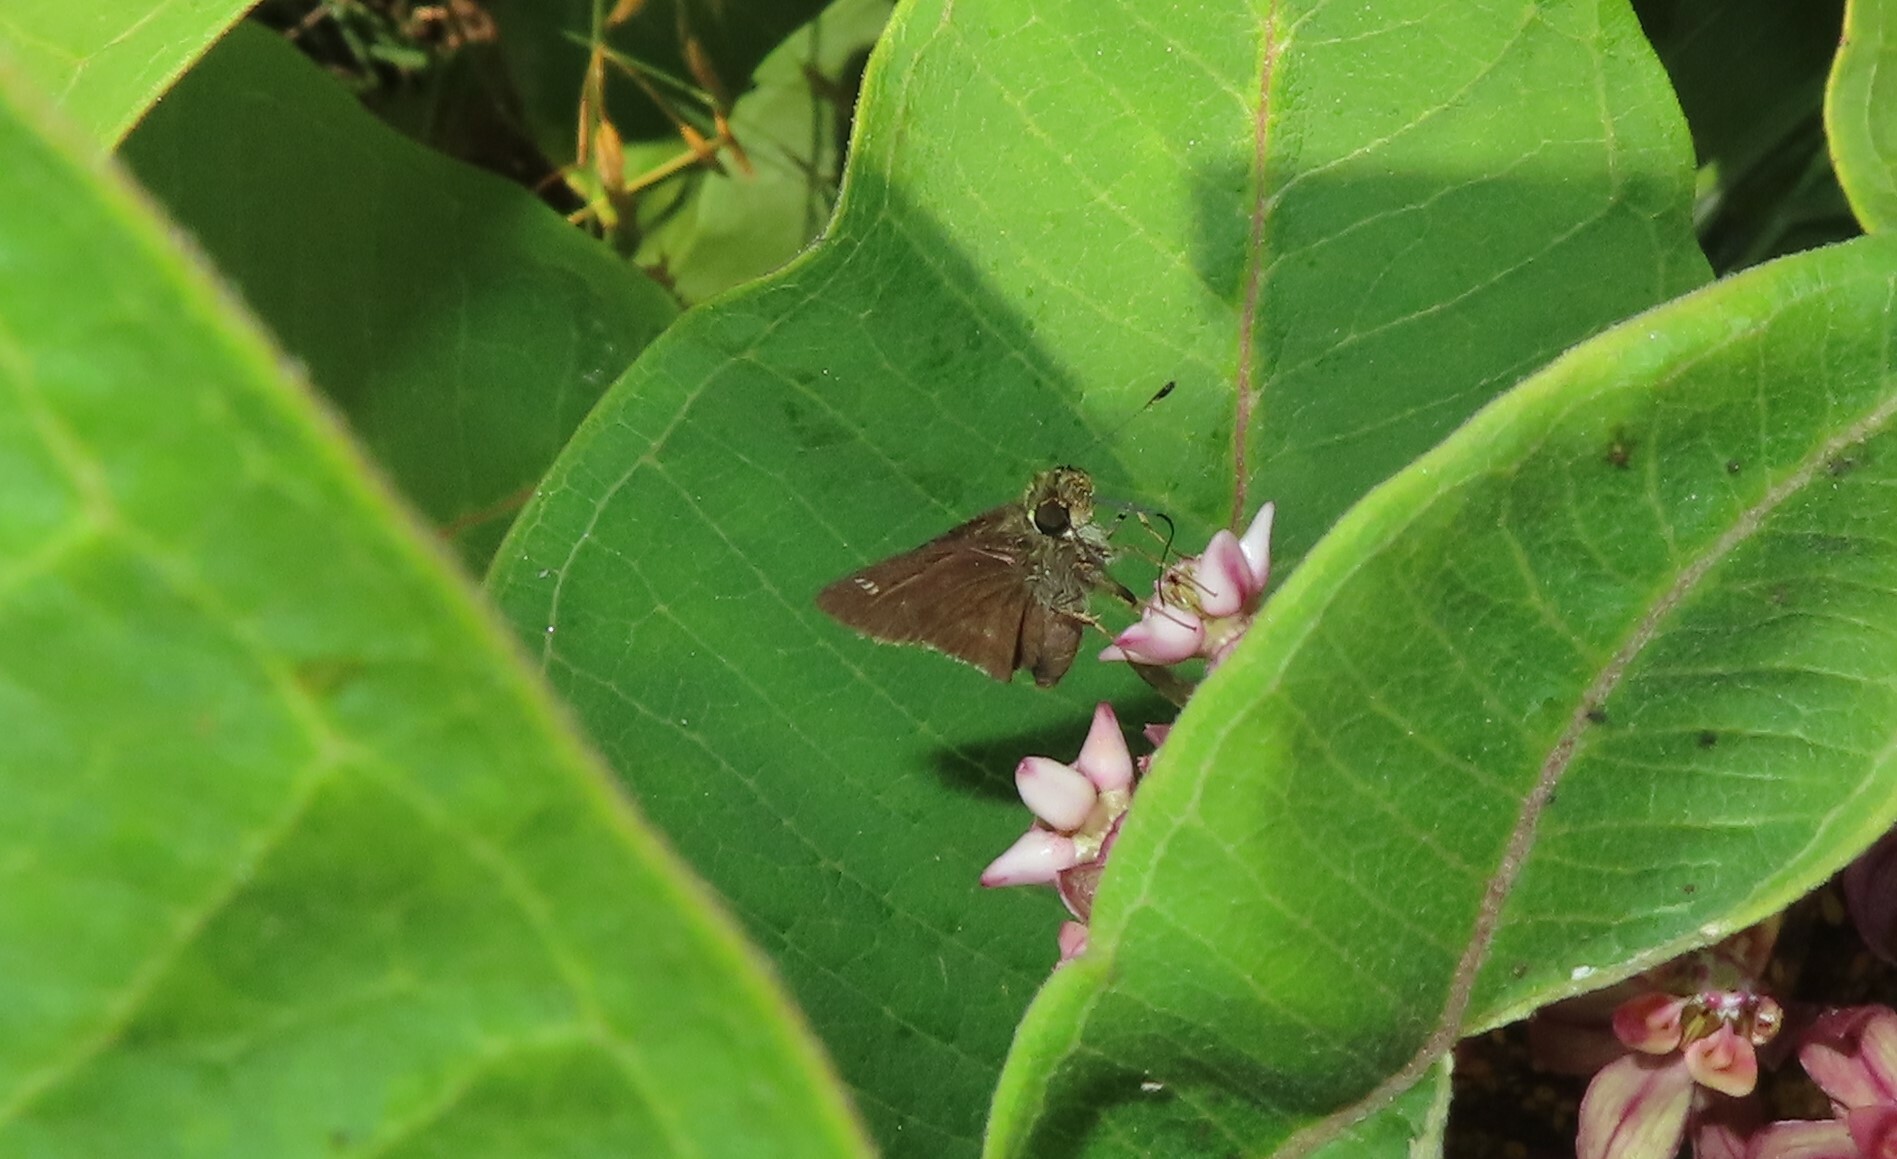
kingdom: Animalia
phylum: Arthropoda
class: Insecta
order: Lepidoptera
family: Hesperiidae
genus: Vernia
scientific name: Vernia verna
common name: Little glassywing
